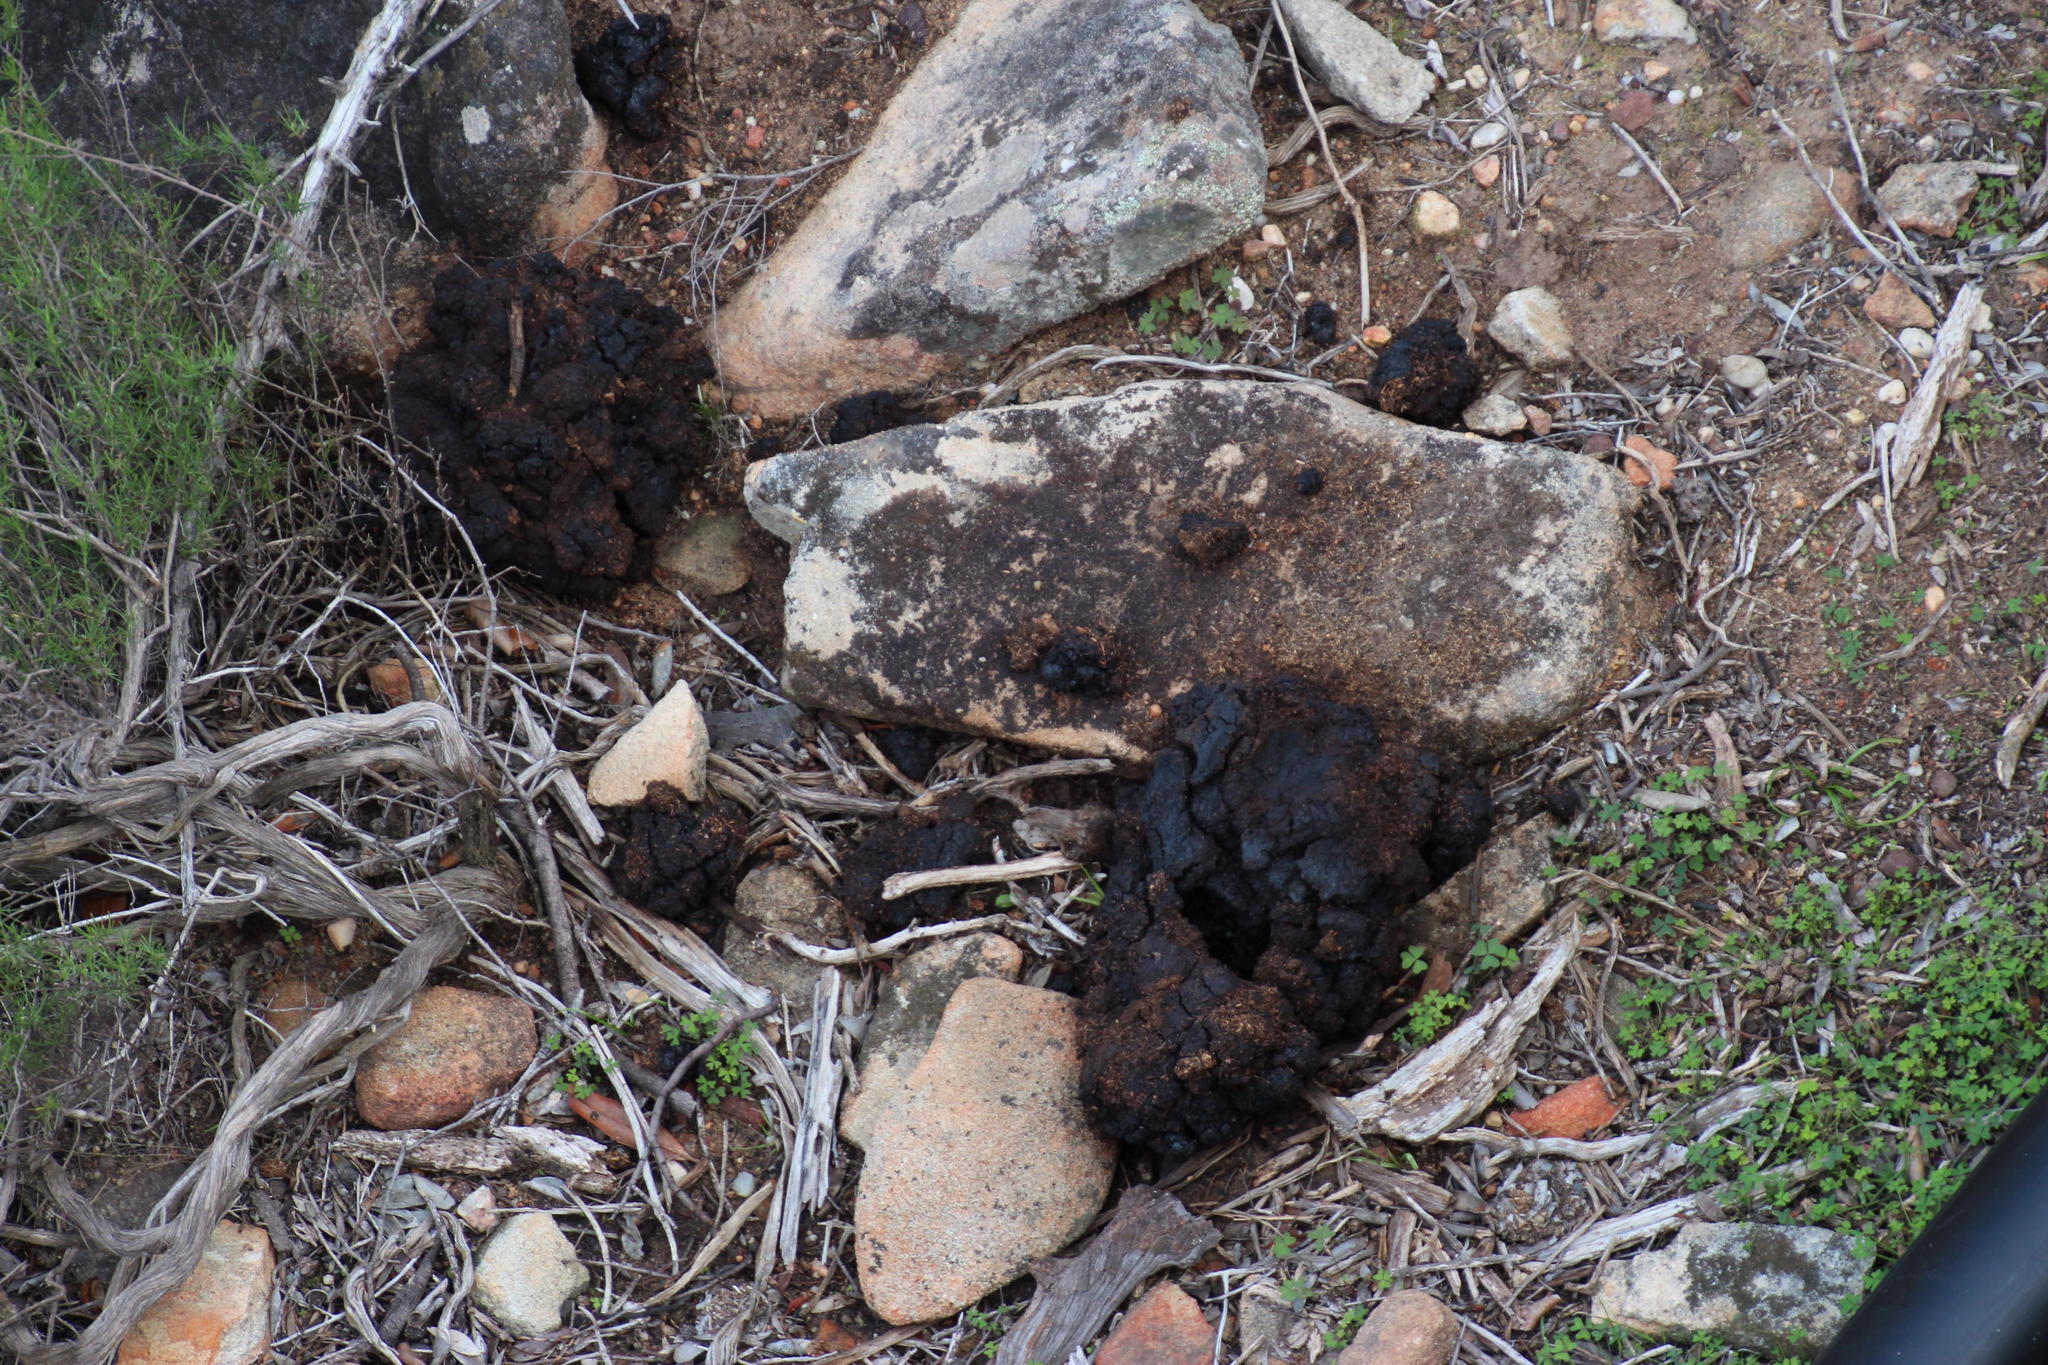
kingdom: Animalia
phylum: Chordata
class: Mammalia
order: Artiodactyla
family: Bovidae
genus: Bos
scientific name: Bos taurus
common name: Domesticated cattle
